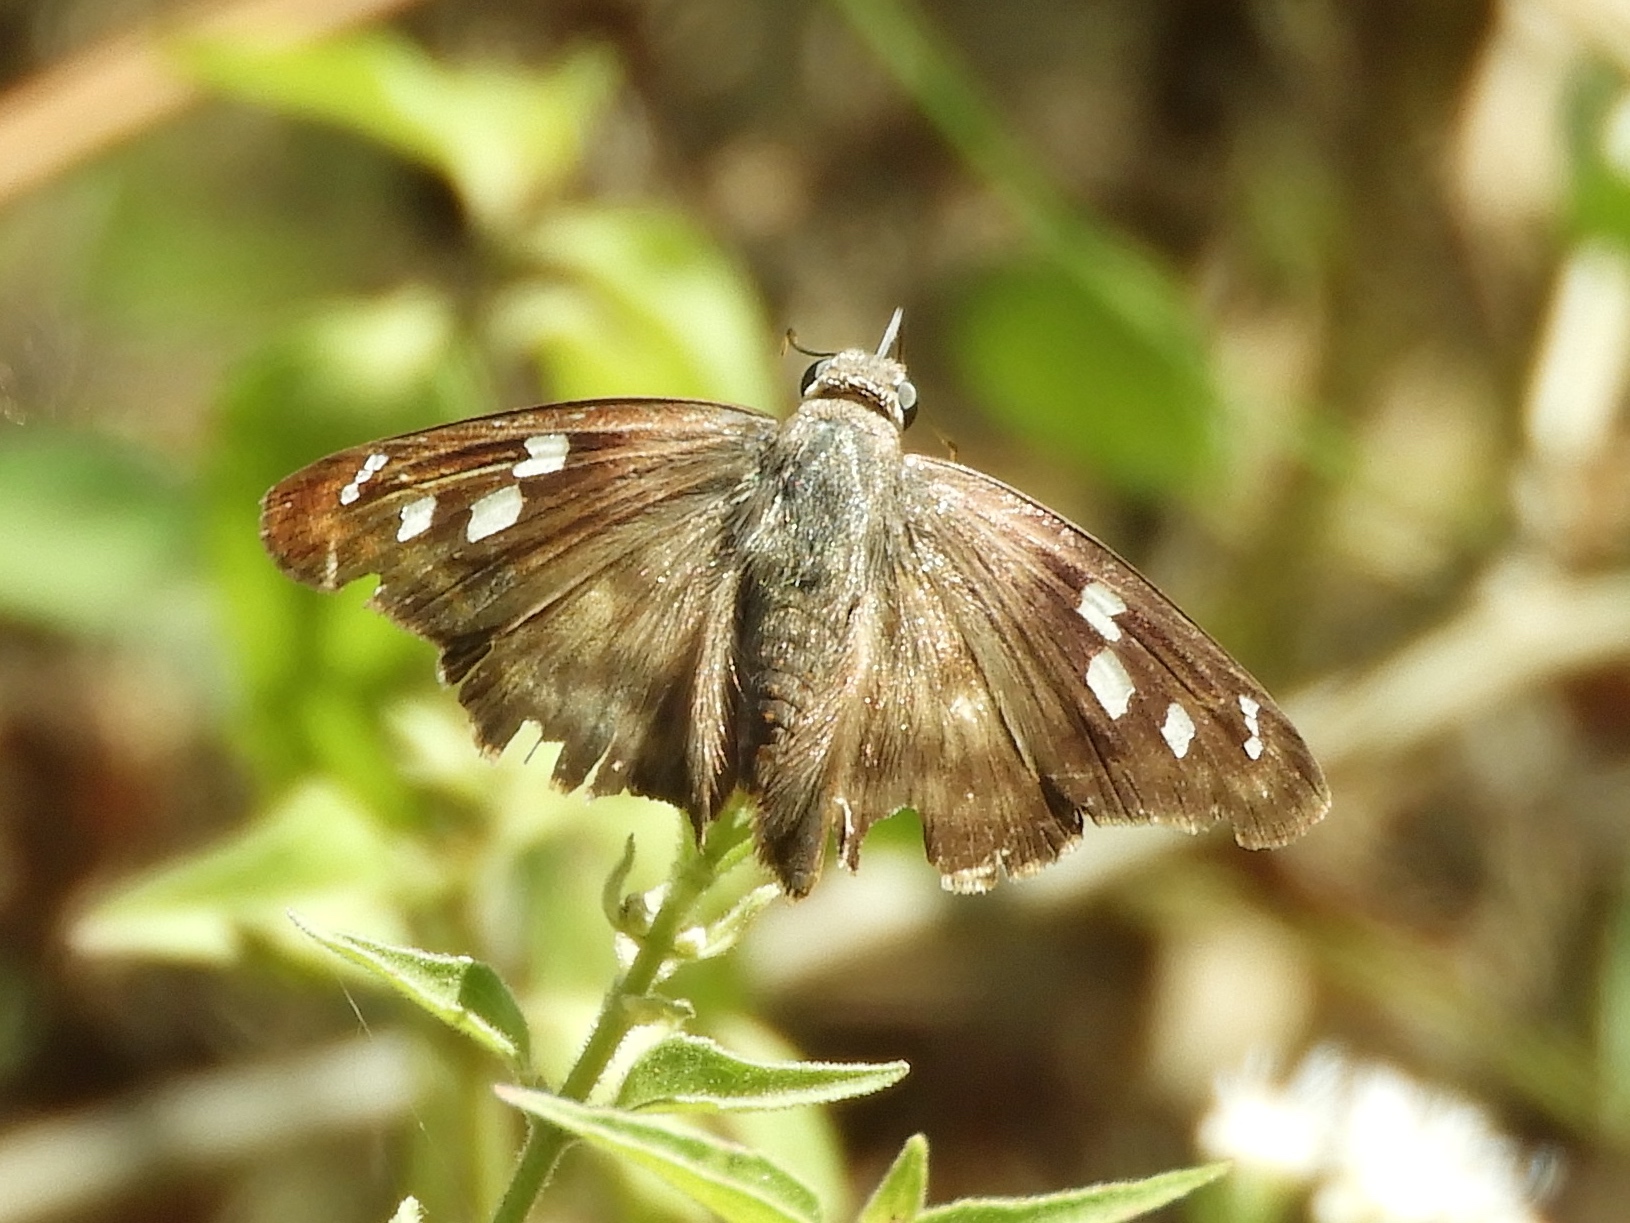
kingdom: Animalia
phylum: Arthropoda
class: Insecta
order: Lepidoptera
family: Hesperiidae
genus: Polygonus
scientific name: Polygonus
